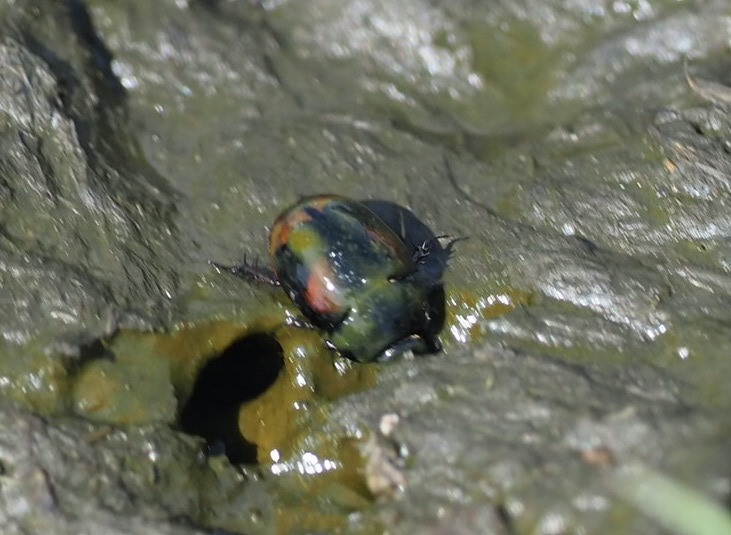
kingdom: Animalia
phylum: Arthropoda
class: Insecta
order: Coleoptera
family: Hydrophilidae
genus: Sphaeridium
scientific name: Sphaeridium scarabaeoides
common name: Water scavenger beetle
